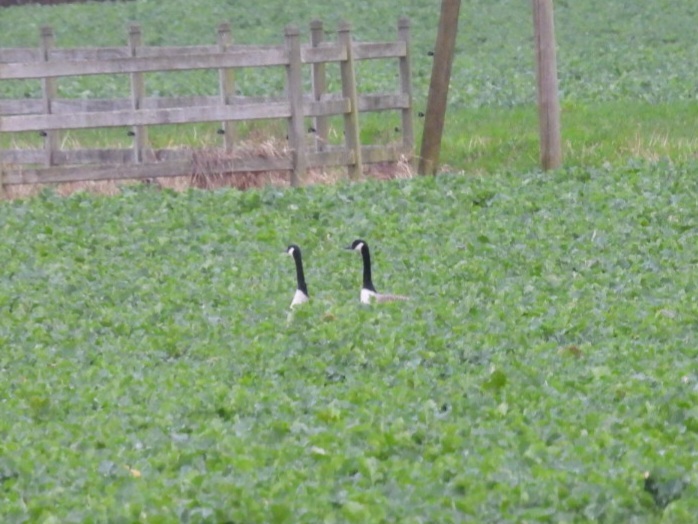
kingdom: Animalia
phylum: Chordata
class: Aves
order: Anseriformes
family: Anatidae
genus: Branta
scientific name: Branta canadensis
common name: Canada goose
